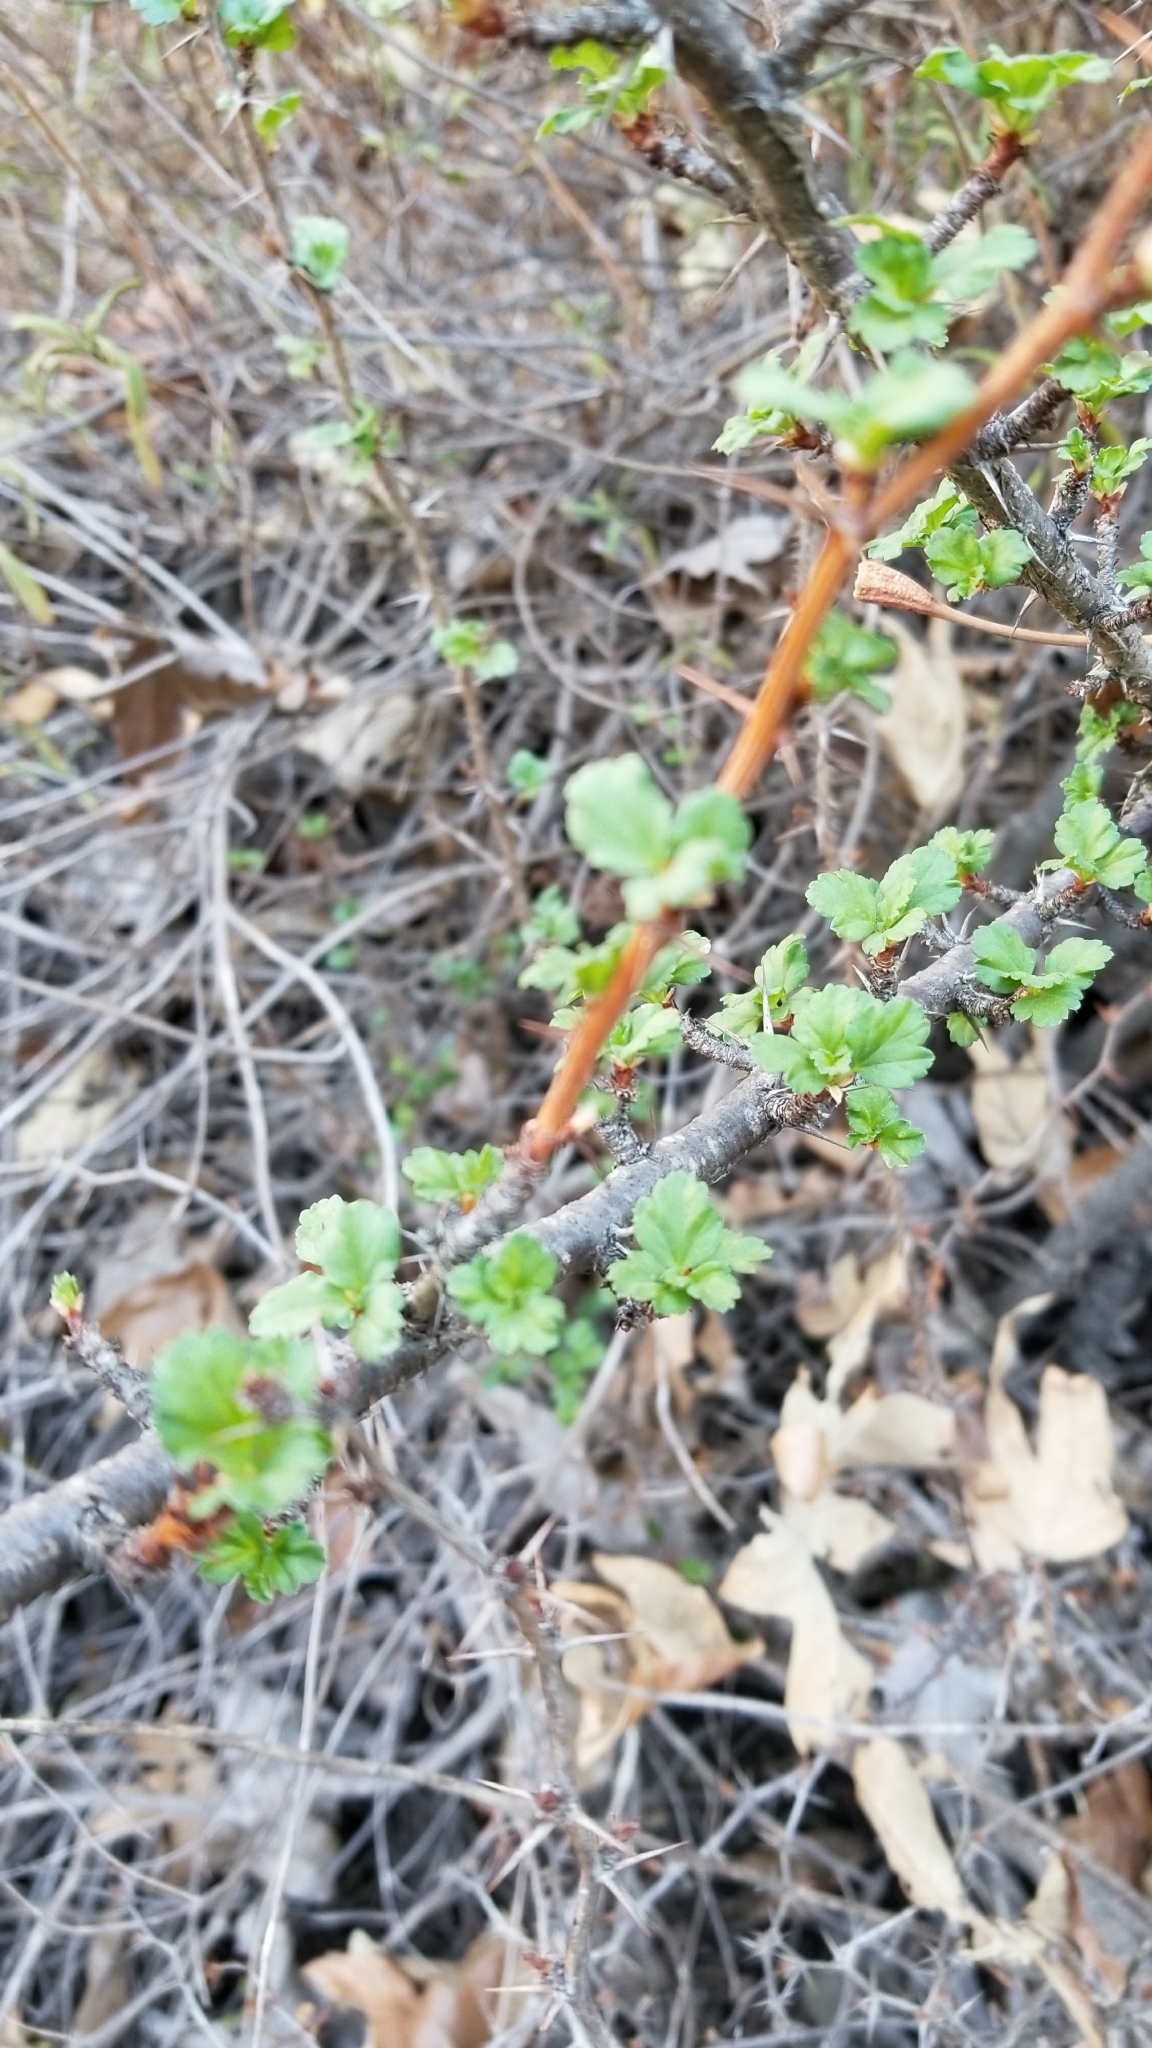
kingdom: Plantae
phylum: Tracheophyta
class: Magnoliopsida
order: Saxifragales
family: Grossulariaceae
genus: Ribes
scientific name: Ribes californicum
